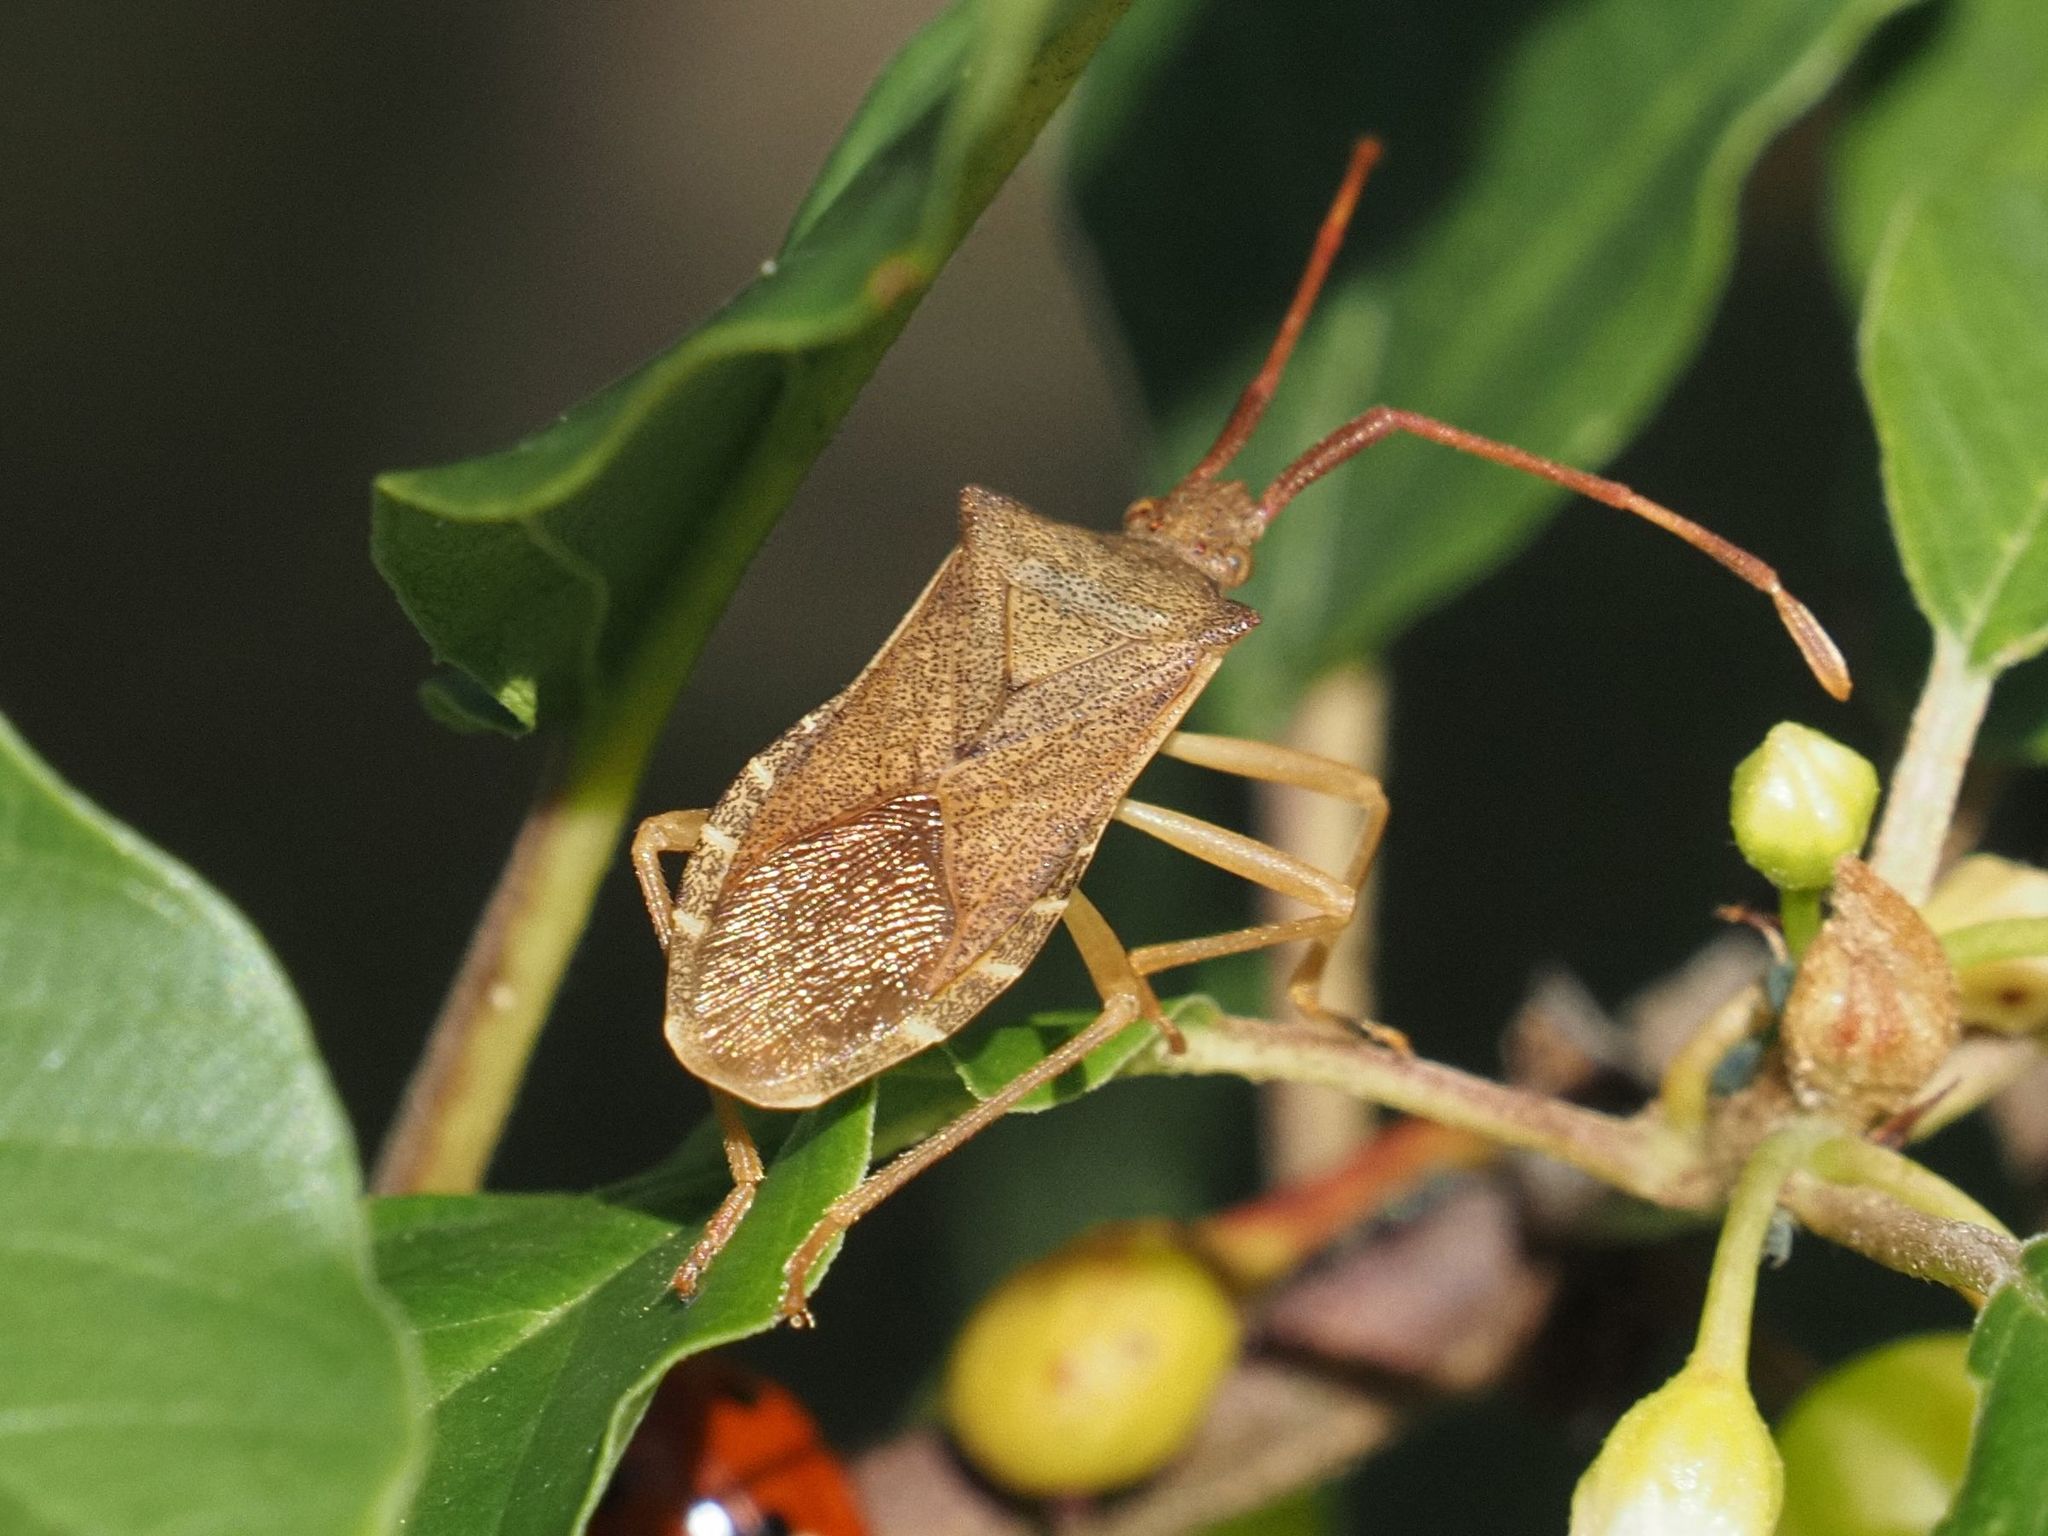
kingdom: Animalia
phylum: Arthropoda
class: Insecta
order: Hemiptera
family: Coreidae
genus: Gonocerus
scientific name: Gonocerus acuteangulatus
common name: Box bug
